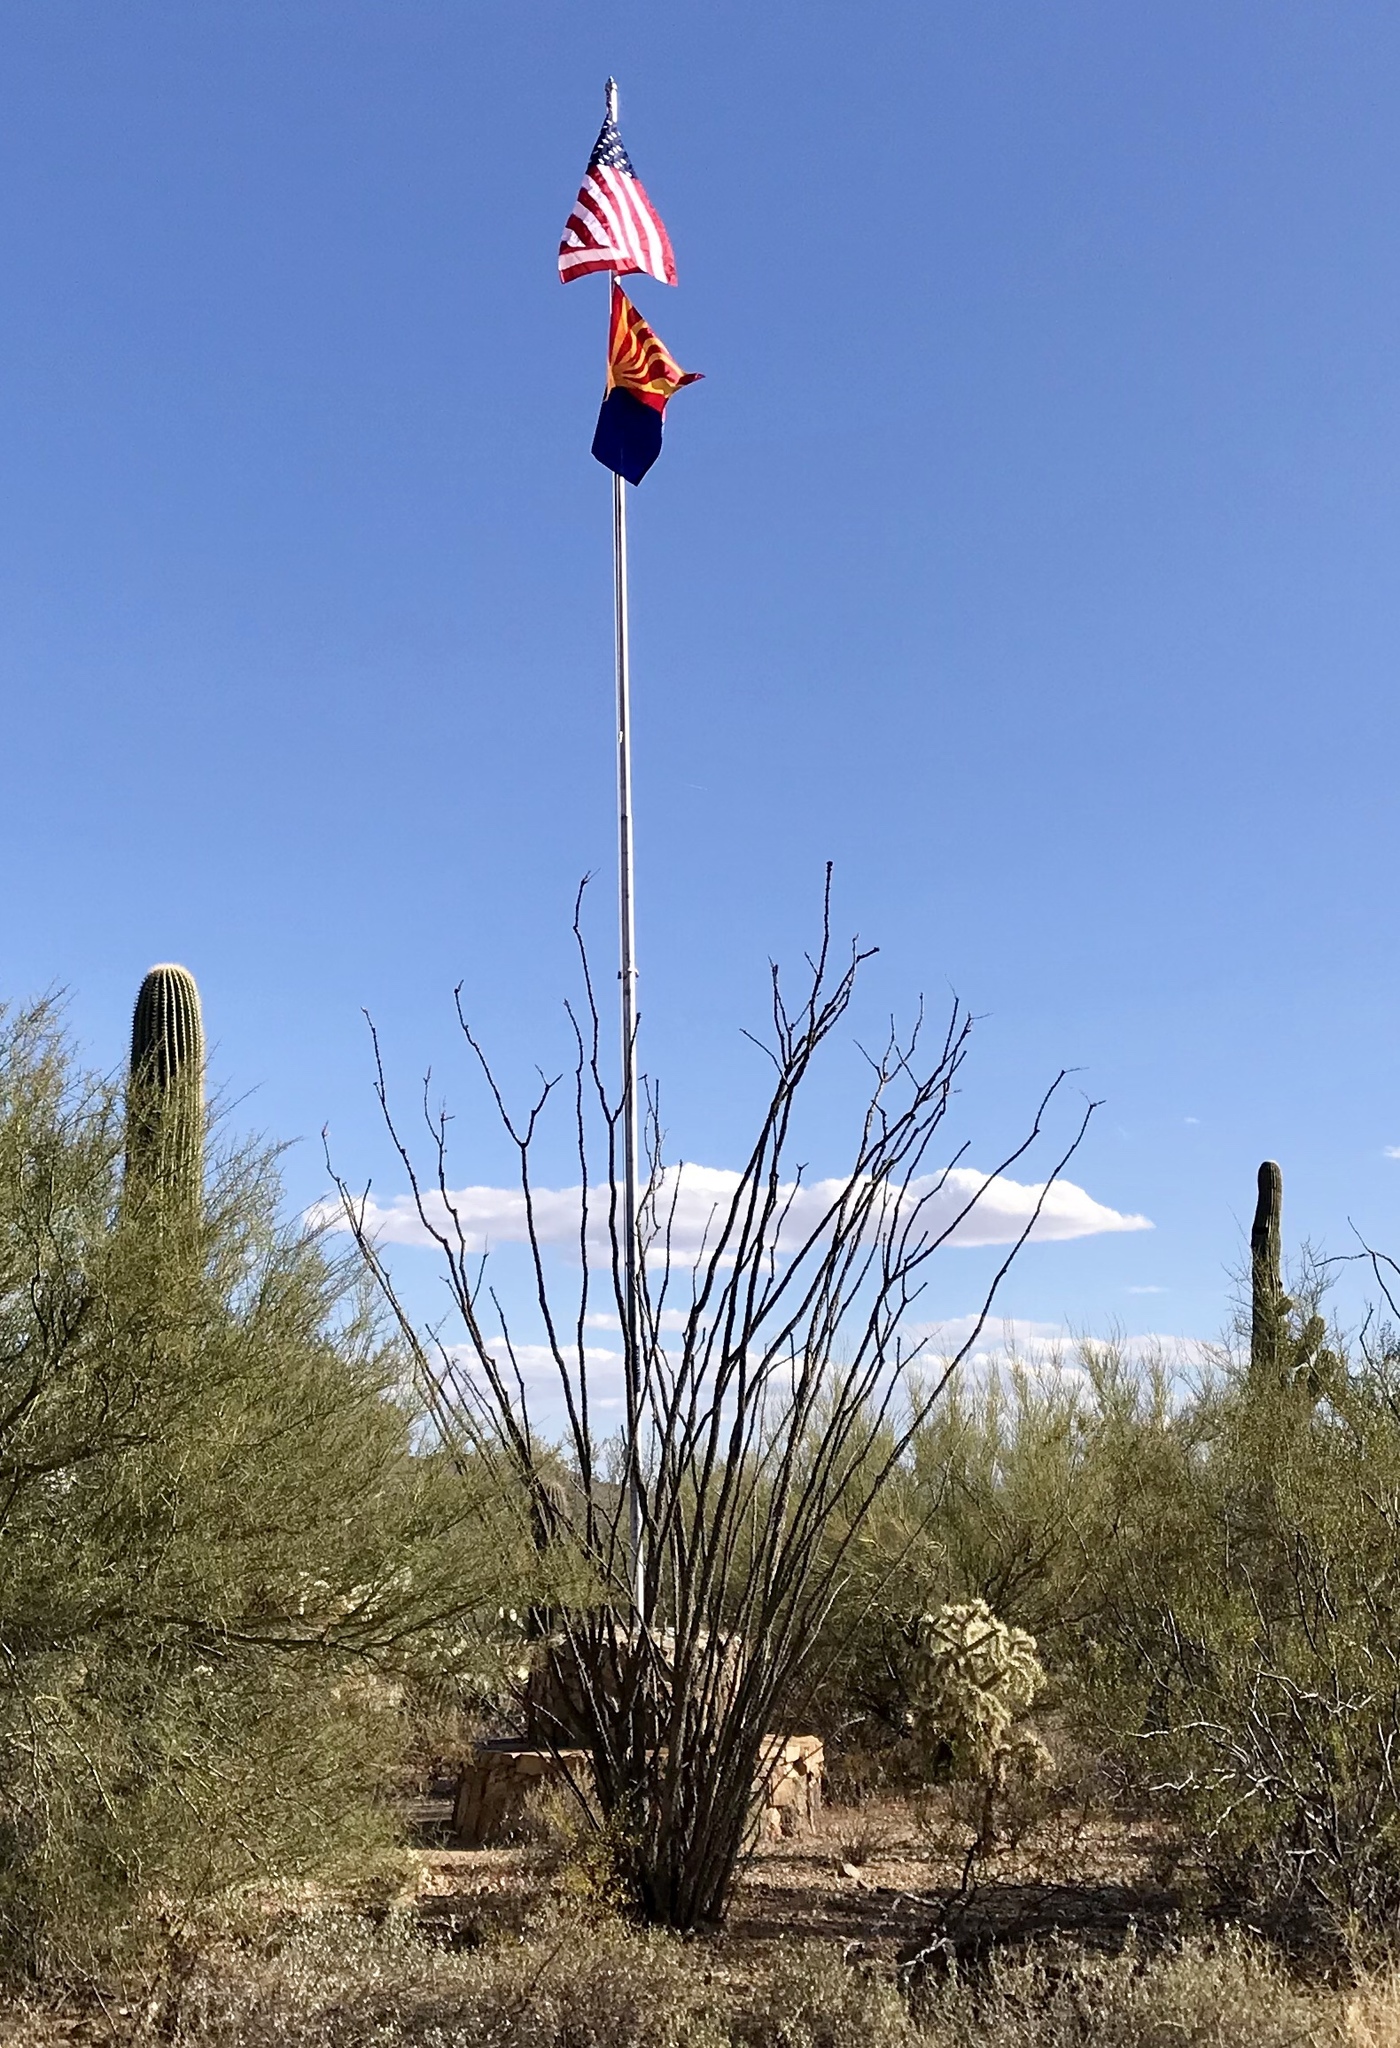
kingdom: Plantae
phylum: Tracheophyta
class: Magnoliopsida
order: Ericales
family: Fouquieriaceae
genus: Fouquieria
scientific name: Fouquieria splendens
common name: Vine-cactus
